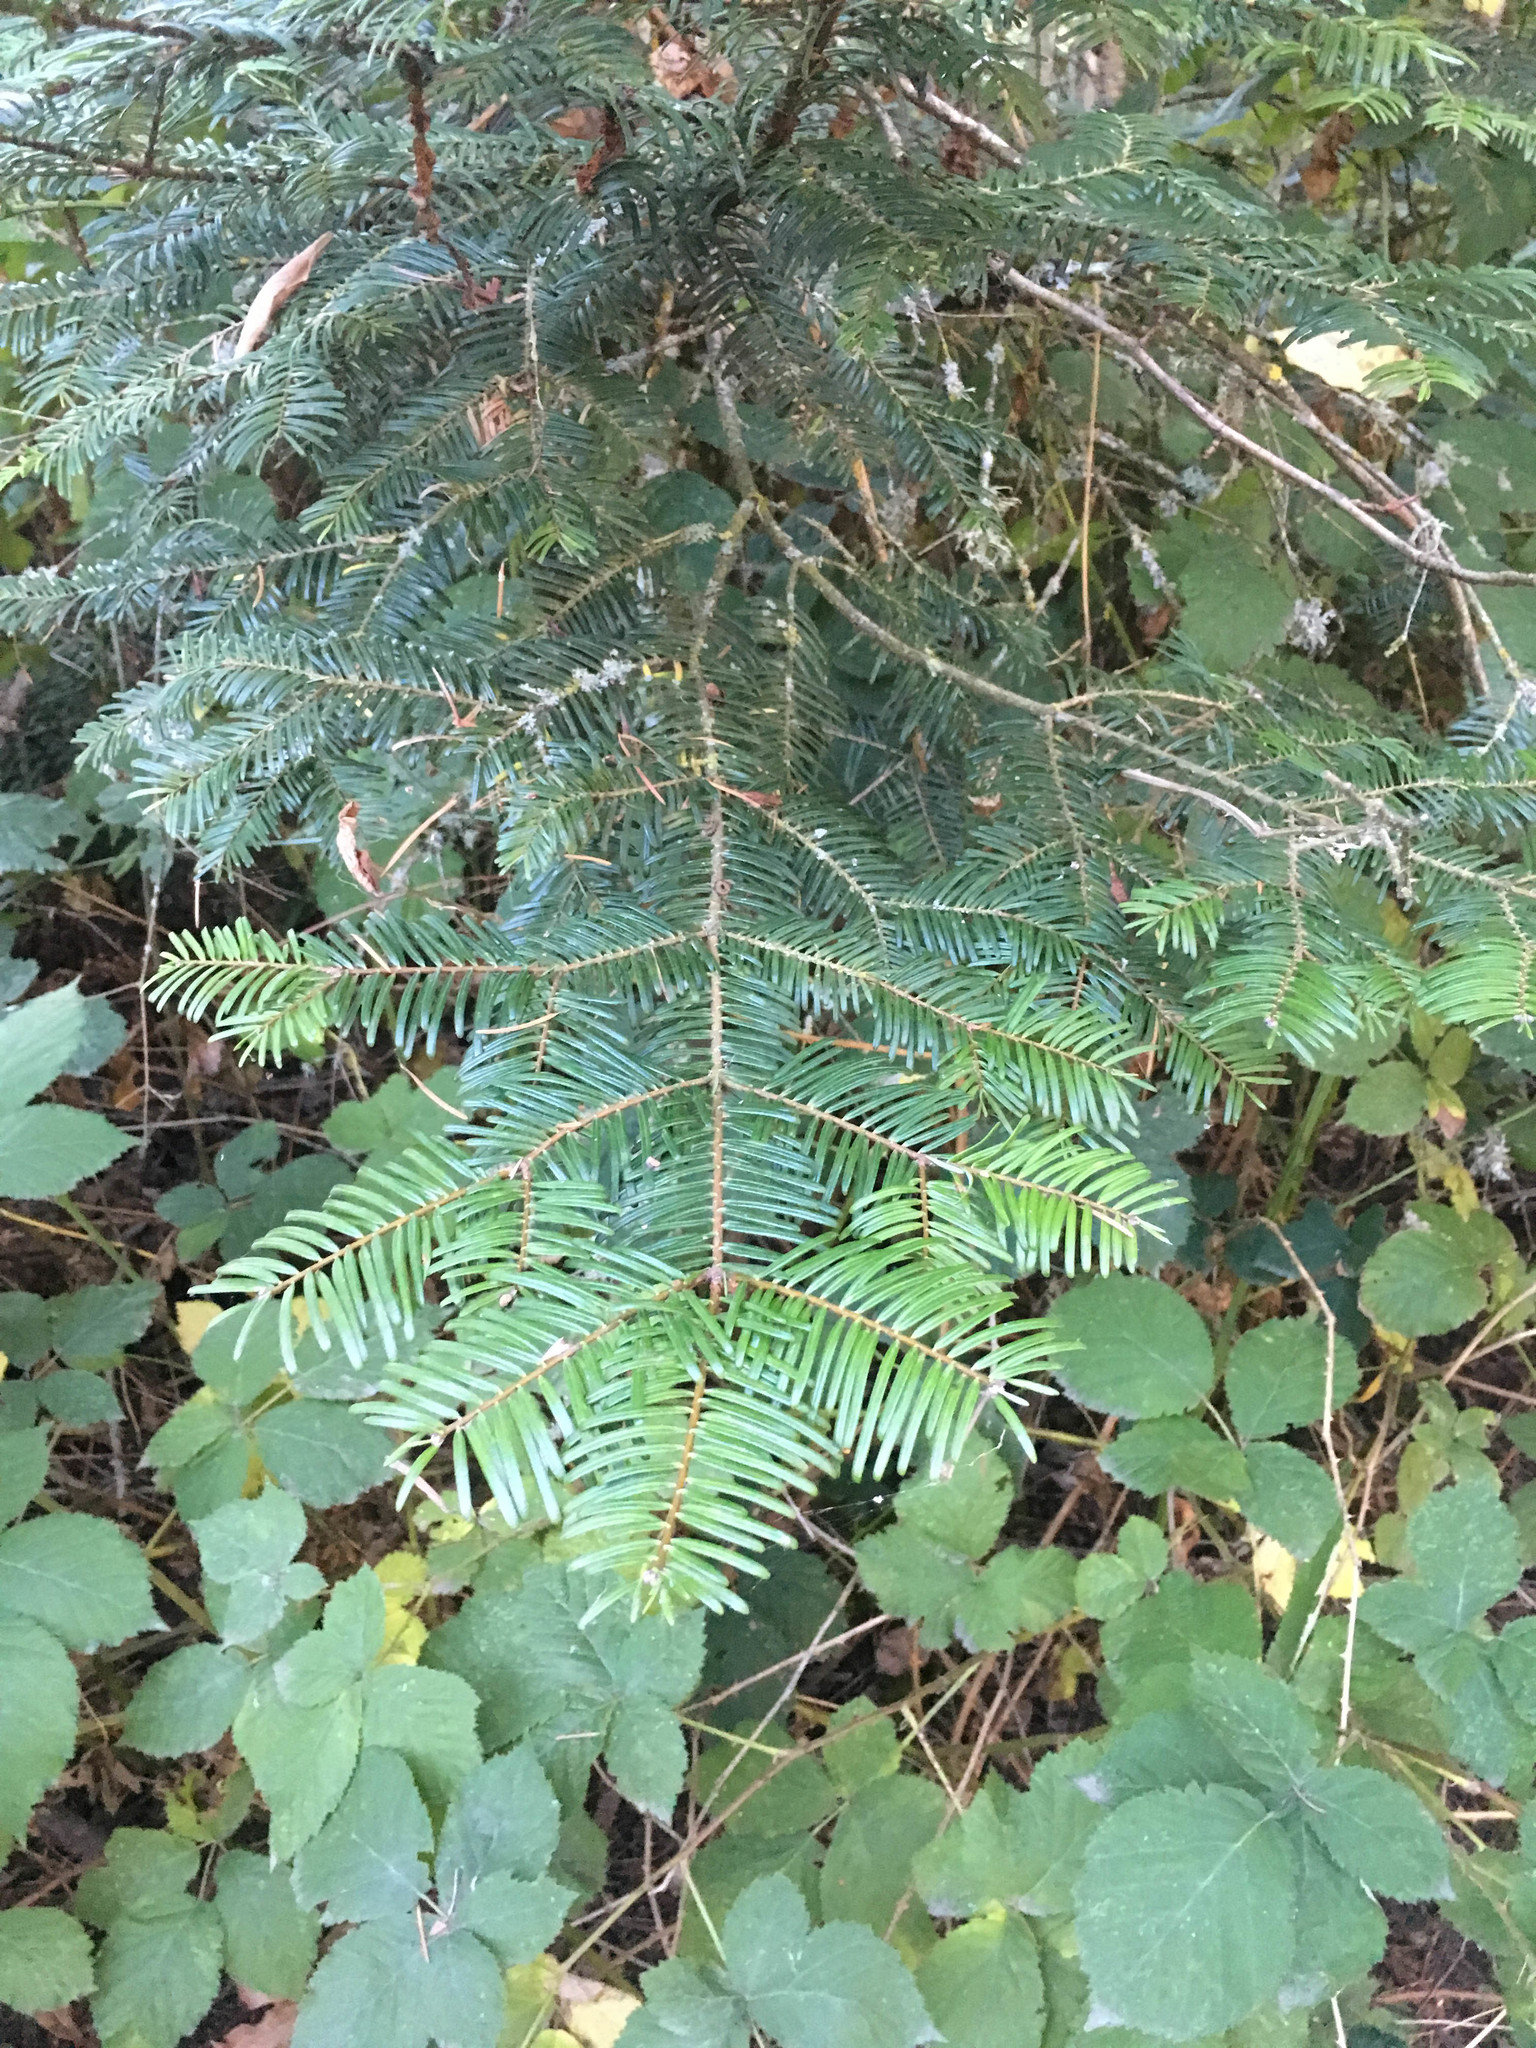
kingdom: Plantae
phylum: Tracheophyta
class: Pinopsida
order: Pinales
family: Pinaceae
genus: Abies
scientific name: Abies grandis
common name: Giant fir
